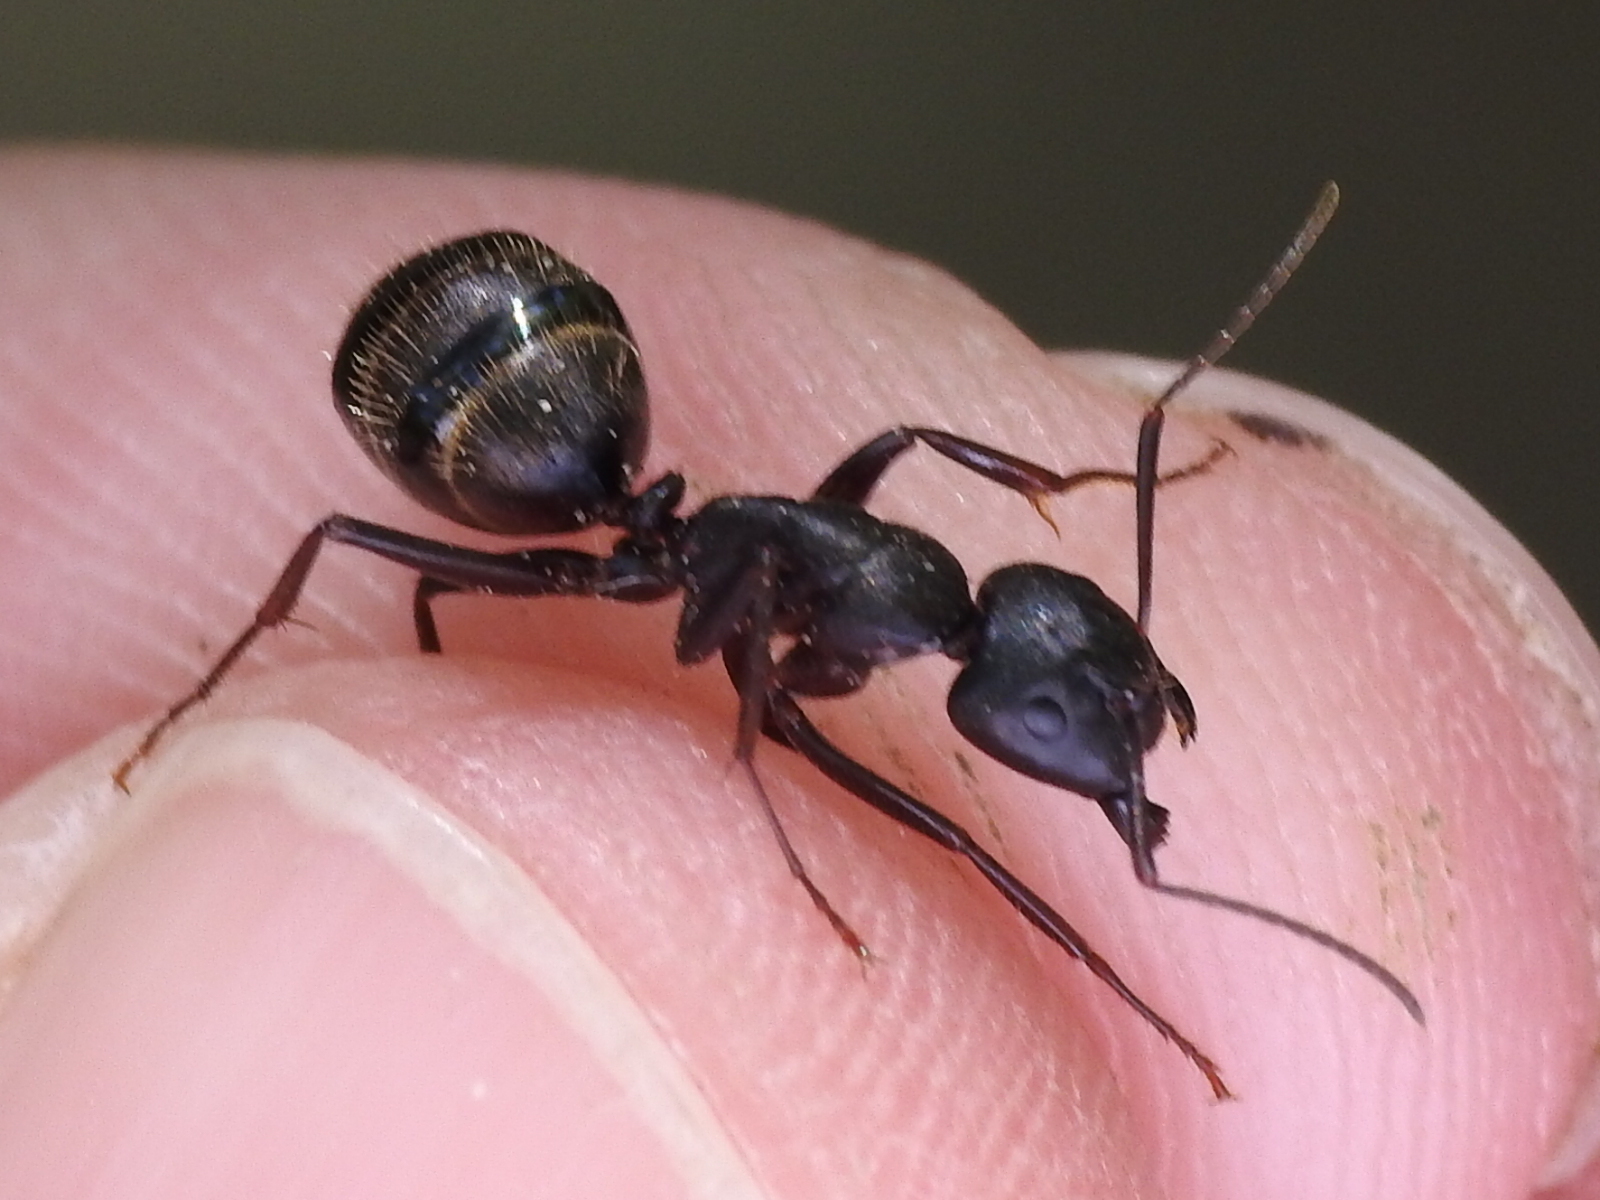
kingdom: Animalia
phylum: Arthropoda
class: Insecta
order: Hymenoptera
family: Formicidae
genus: Camponotus
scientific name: Camponotus pennsylvanicus
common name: Black carpenter ant
